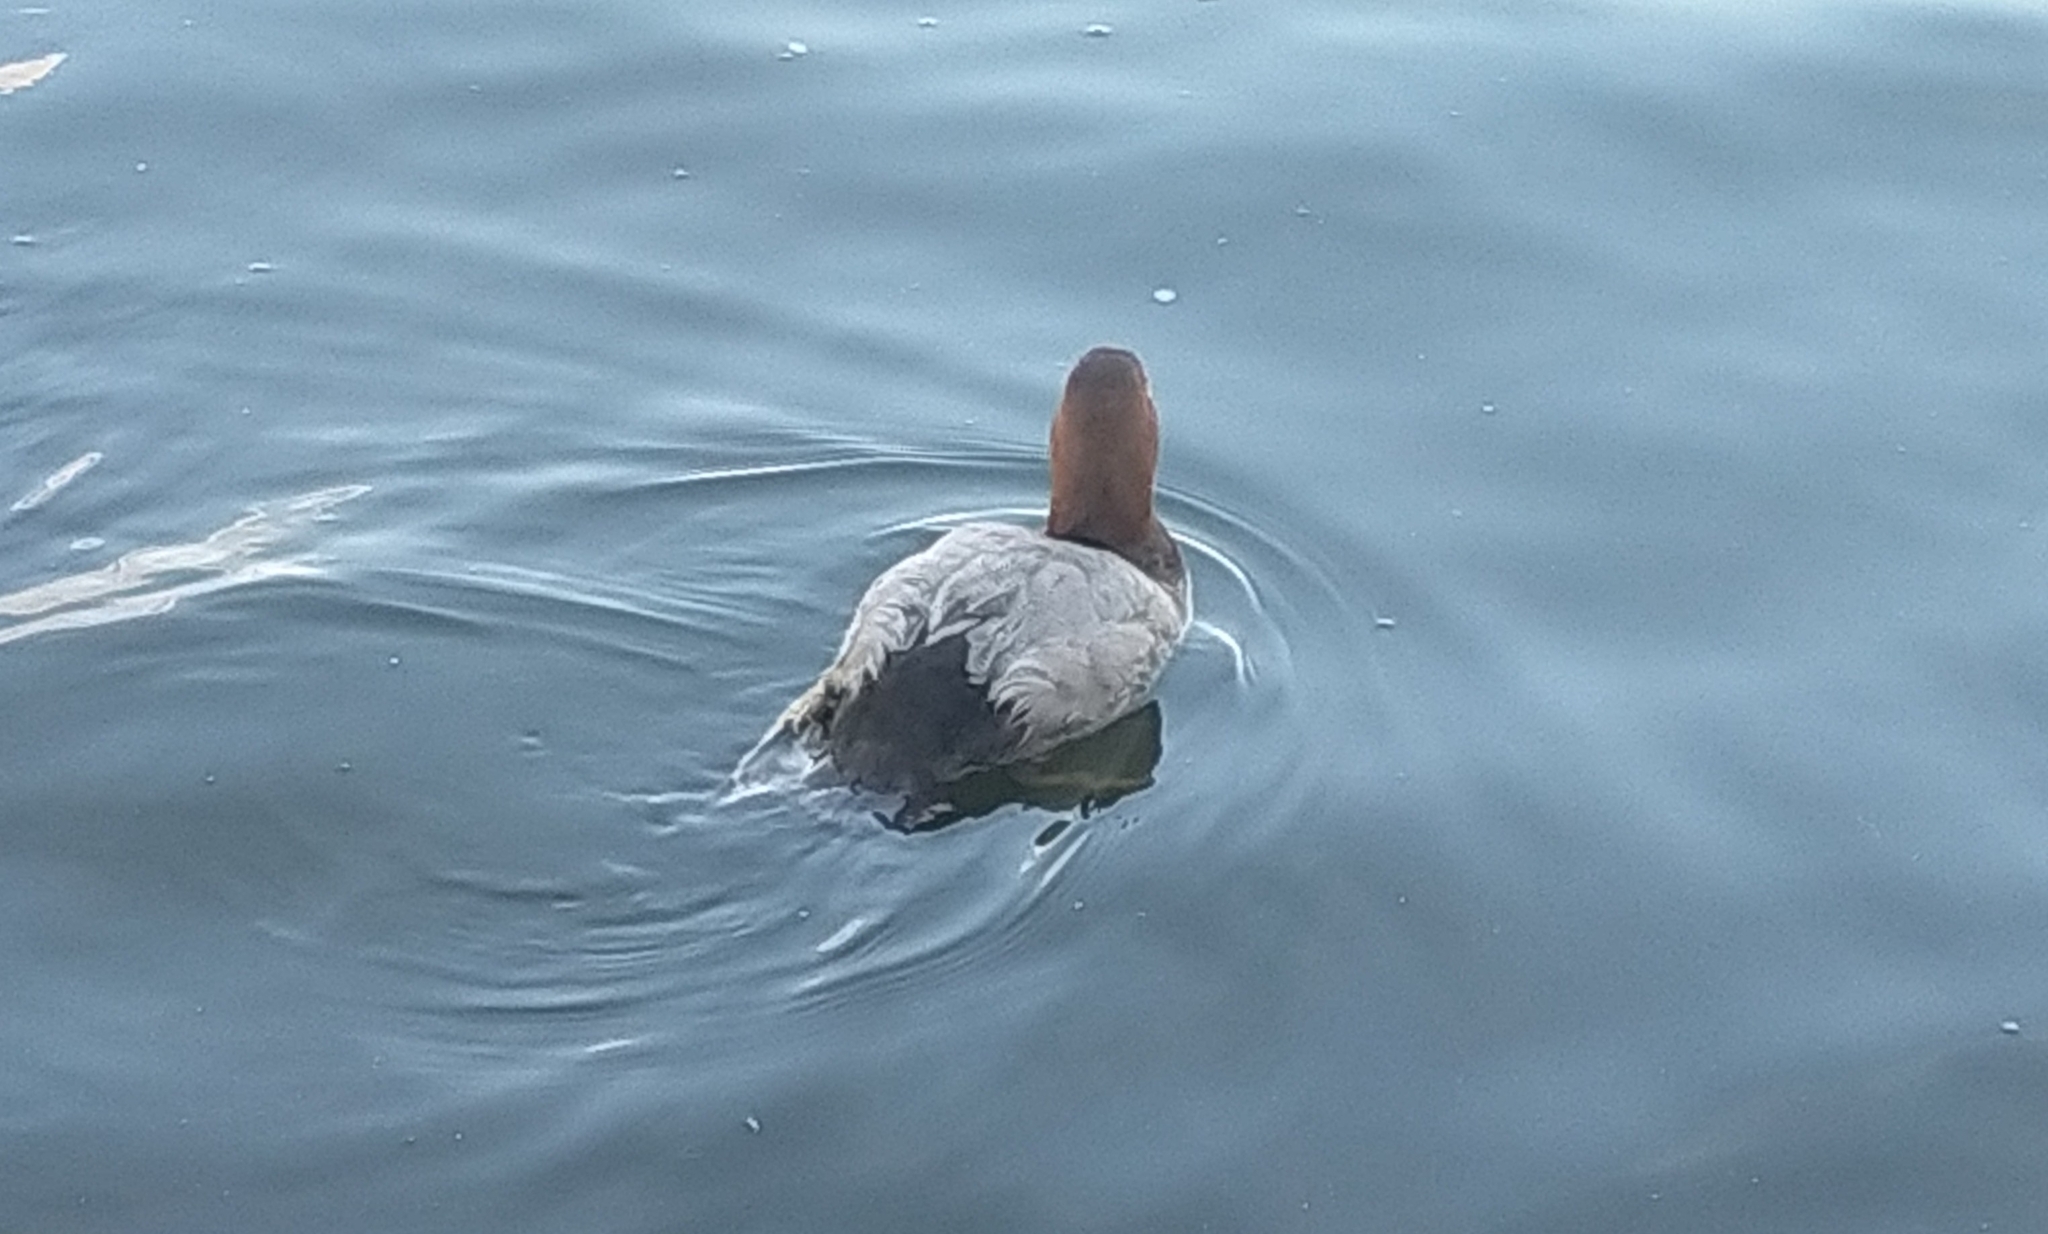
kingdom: Animalia
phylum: Chordata
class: Aves
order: Anseriformes
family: Anatidae
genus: Aythya
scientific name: Aythya ferina
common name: Common pochard
